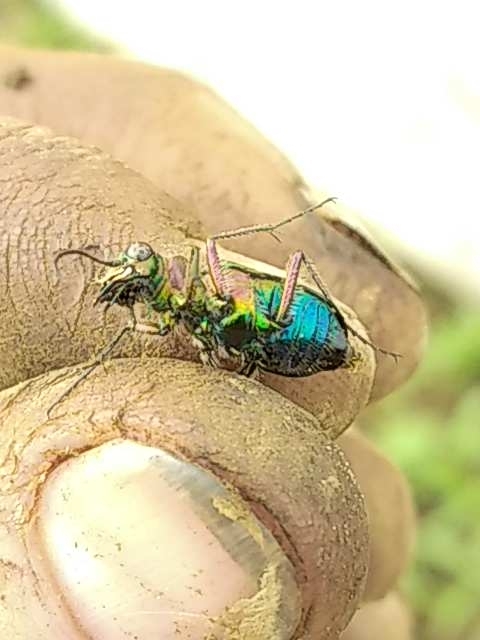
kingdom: Animalia
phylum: Arthropoda
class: Insecta
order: Coleoptera
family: Carabidae
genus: Cicindela
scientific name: Cicindela campestris
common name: Common tiger beetle
